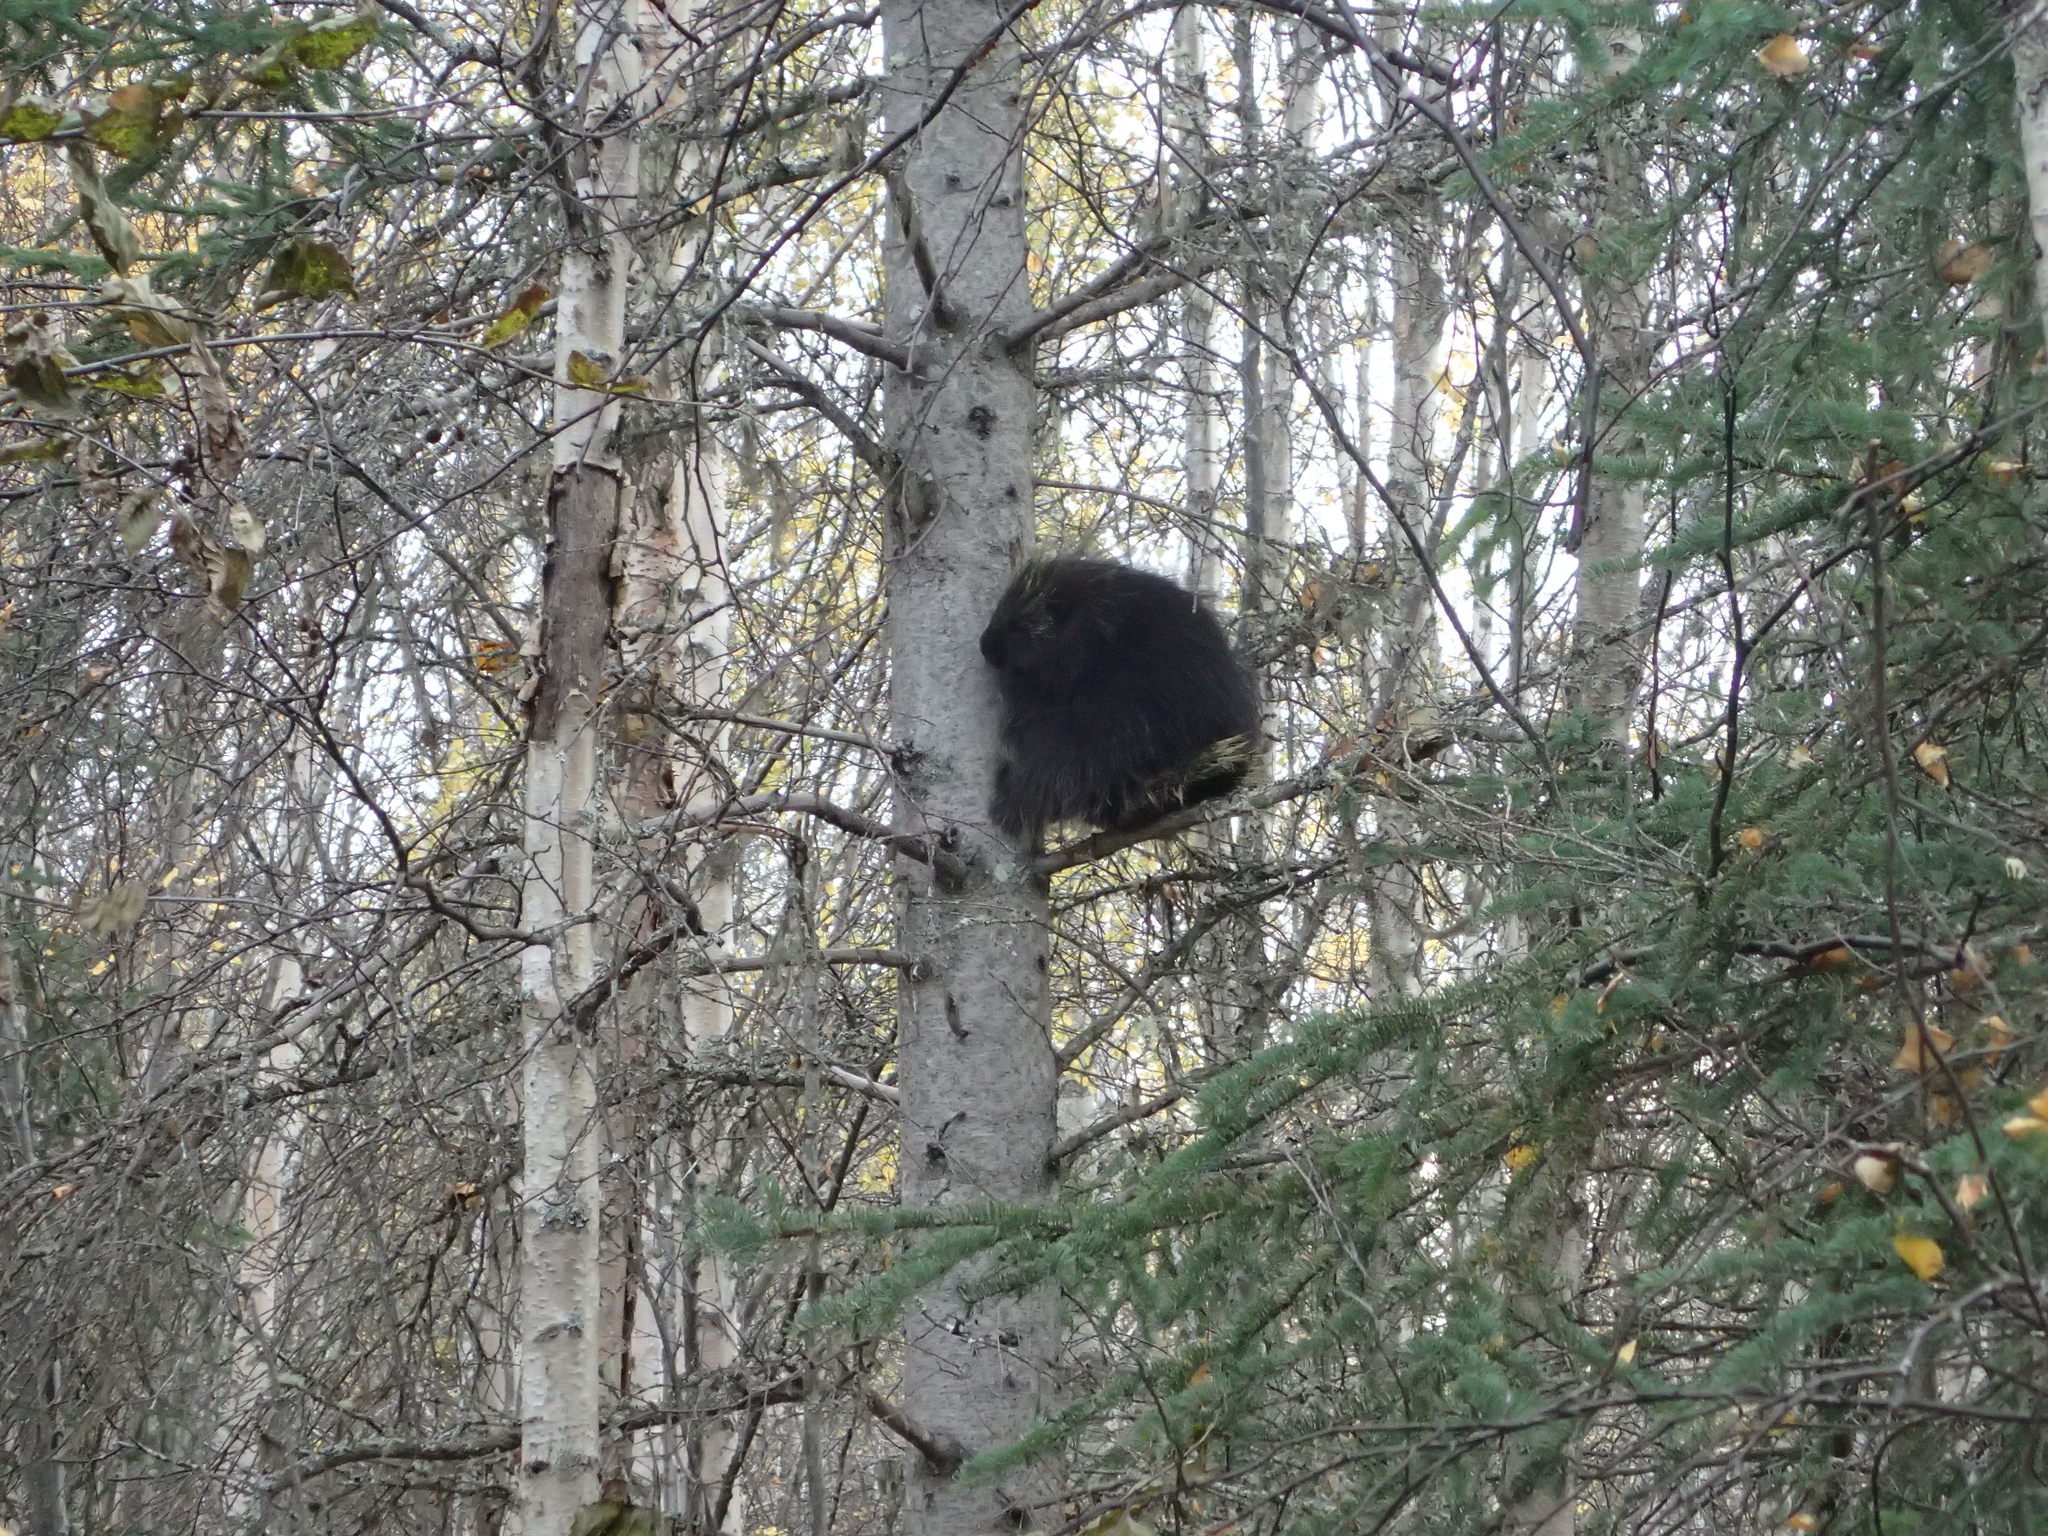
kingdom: Animalia
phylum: Chordata
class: Mammalia
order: Rodentia
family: Erethizontidae
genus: Erethizon
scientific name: Erethizon dorsatus
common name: North american porcupine
